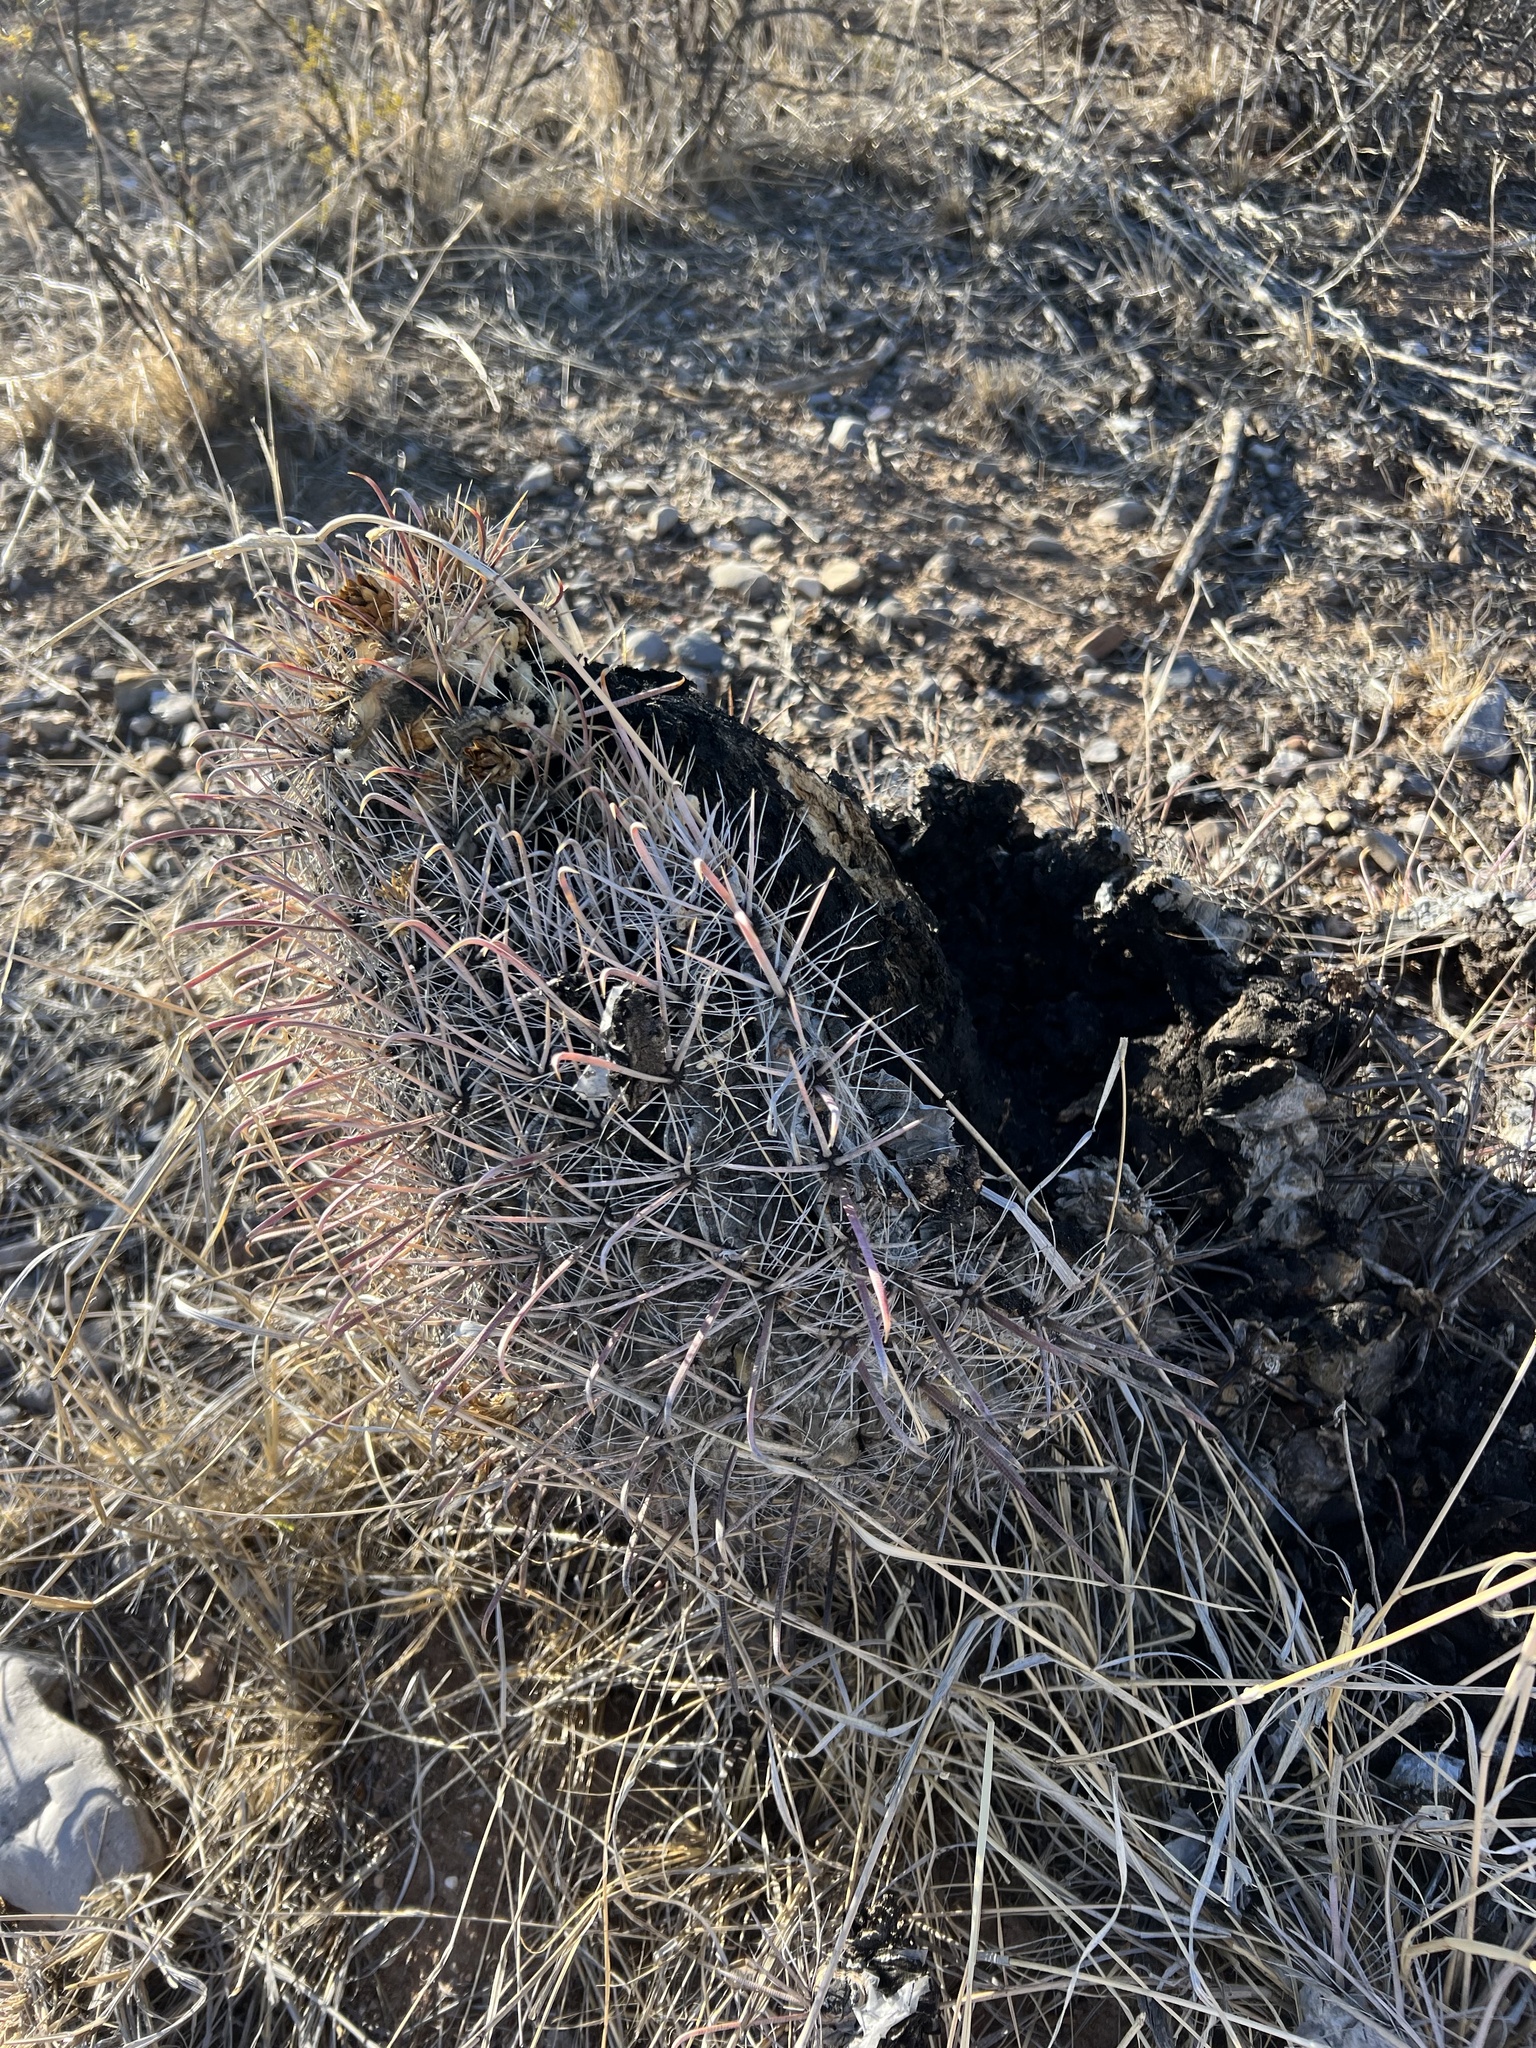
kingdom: Plantae
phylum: Tracheophyta
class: Magnoliopsida
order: Caryophyllales
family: Cactaceae
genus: Ferocactus
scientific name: Ferocactus wislizeni
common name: Candy barrel cactus
